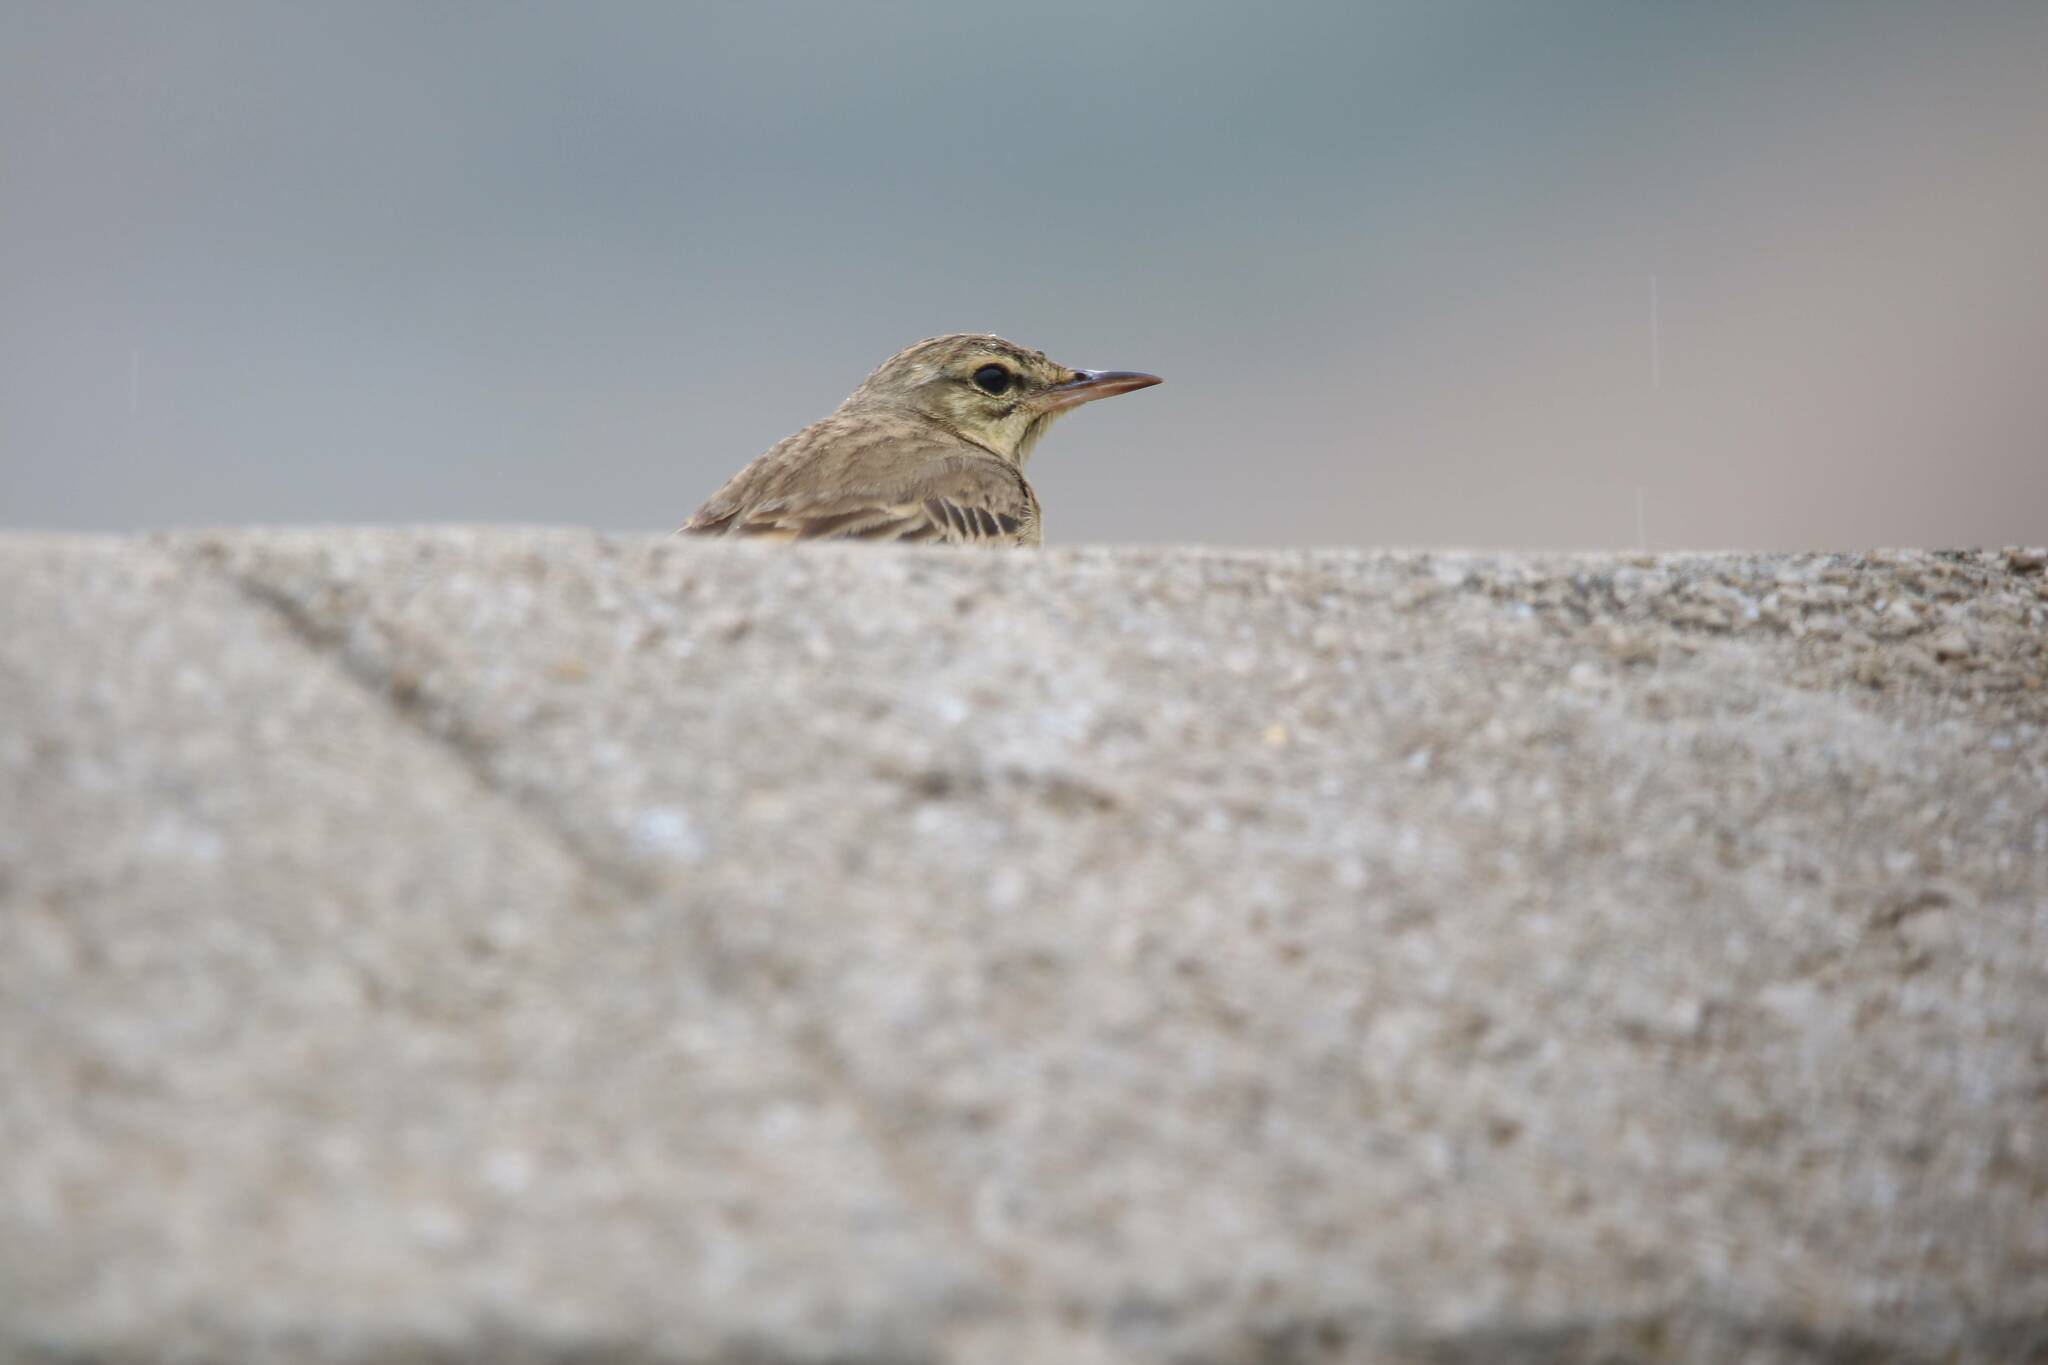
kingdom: Animalia
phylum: Chordata
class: Aves
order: Passeriformes
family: Motacillidae
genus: Anthus
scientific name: Anthus campestris
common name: Tawny pipit
